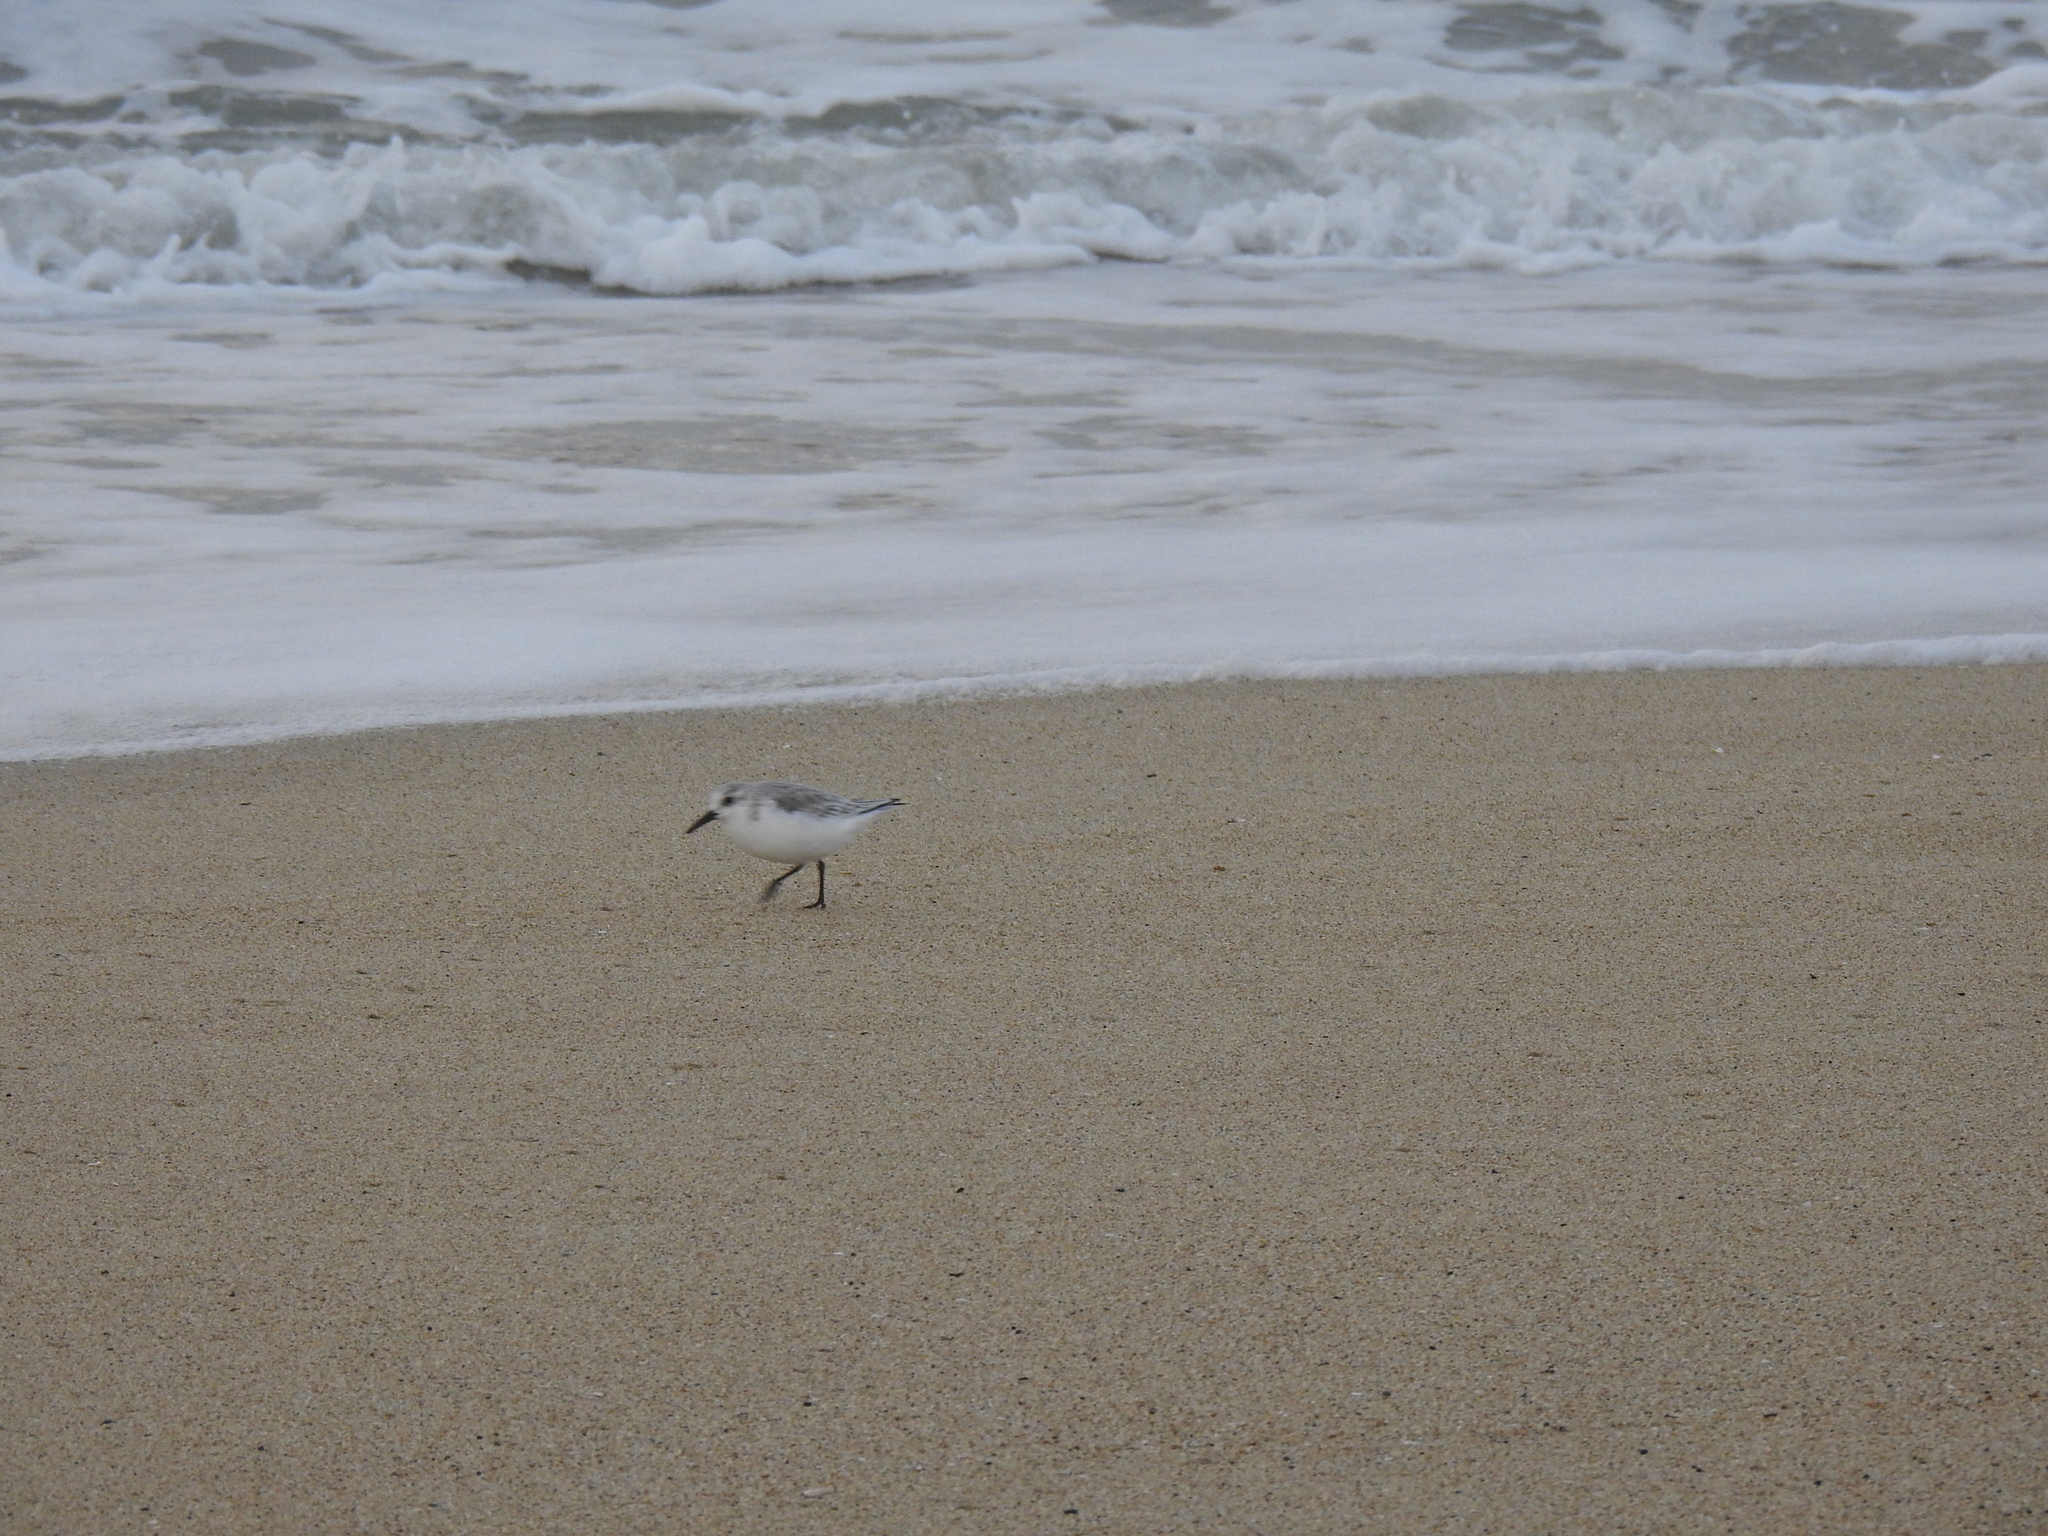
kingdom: Animalia
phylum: Chordata
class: Aves
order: Charadriiformes
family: Scolopacidae
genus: Calidris
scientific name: Calidris alba
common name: Sanderling
